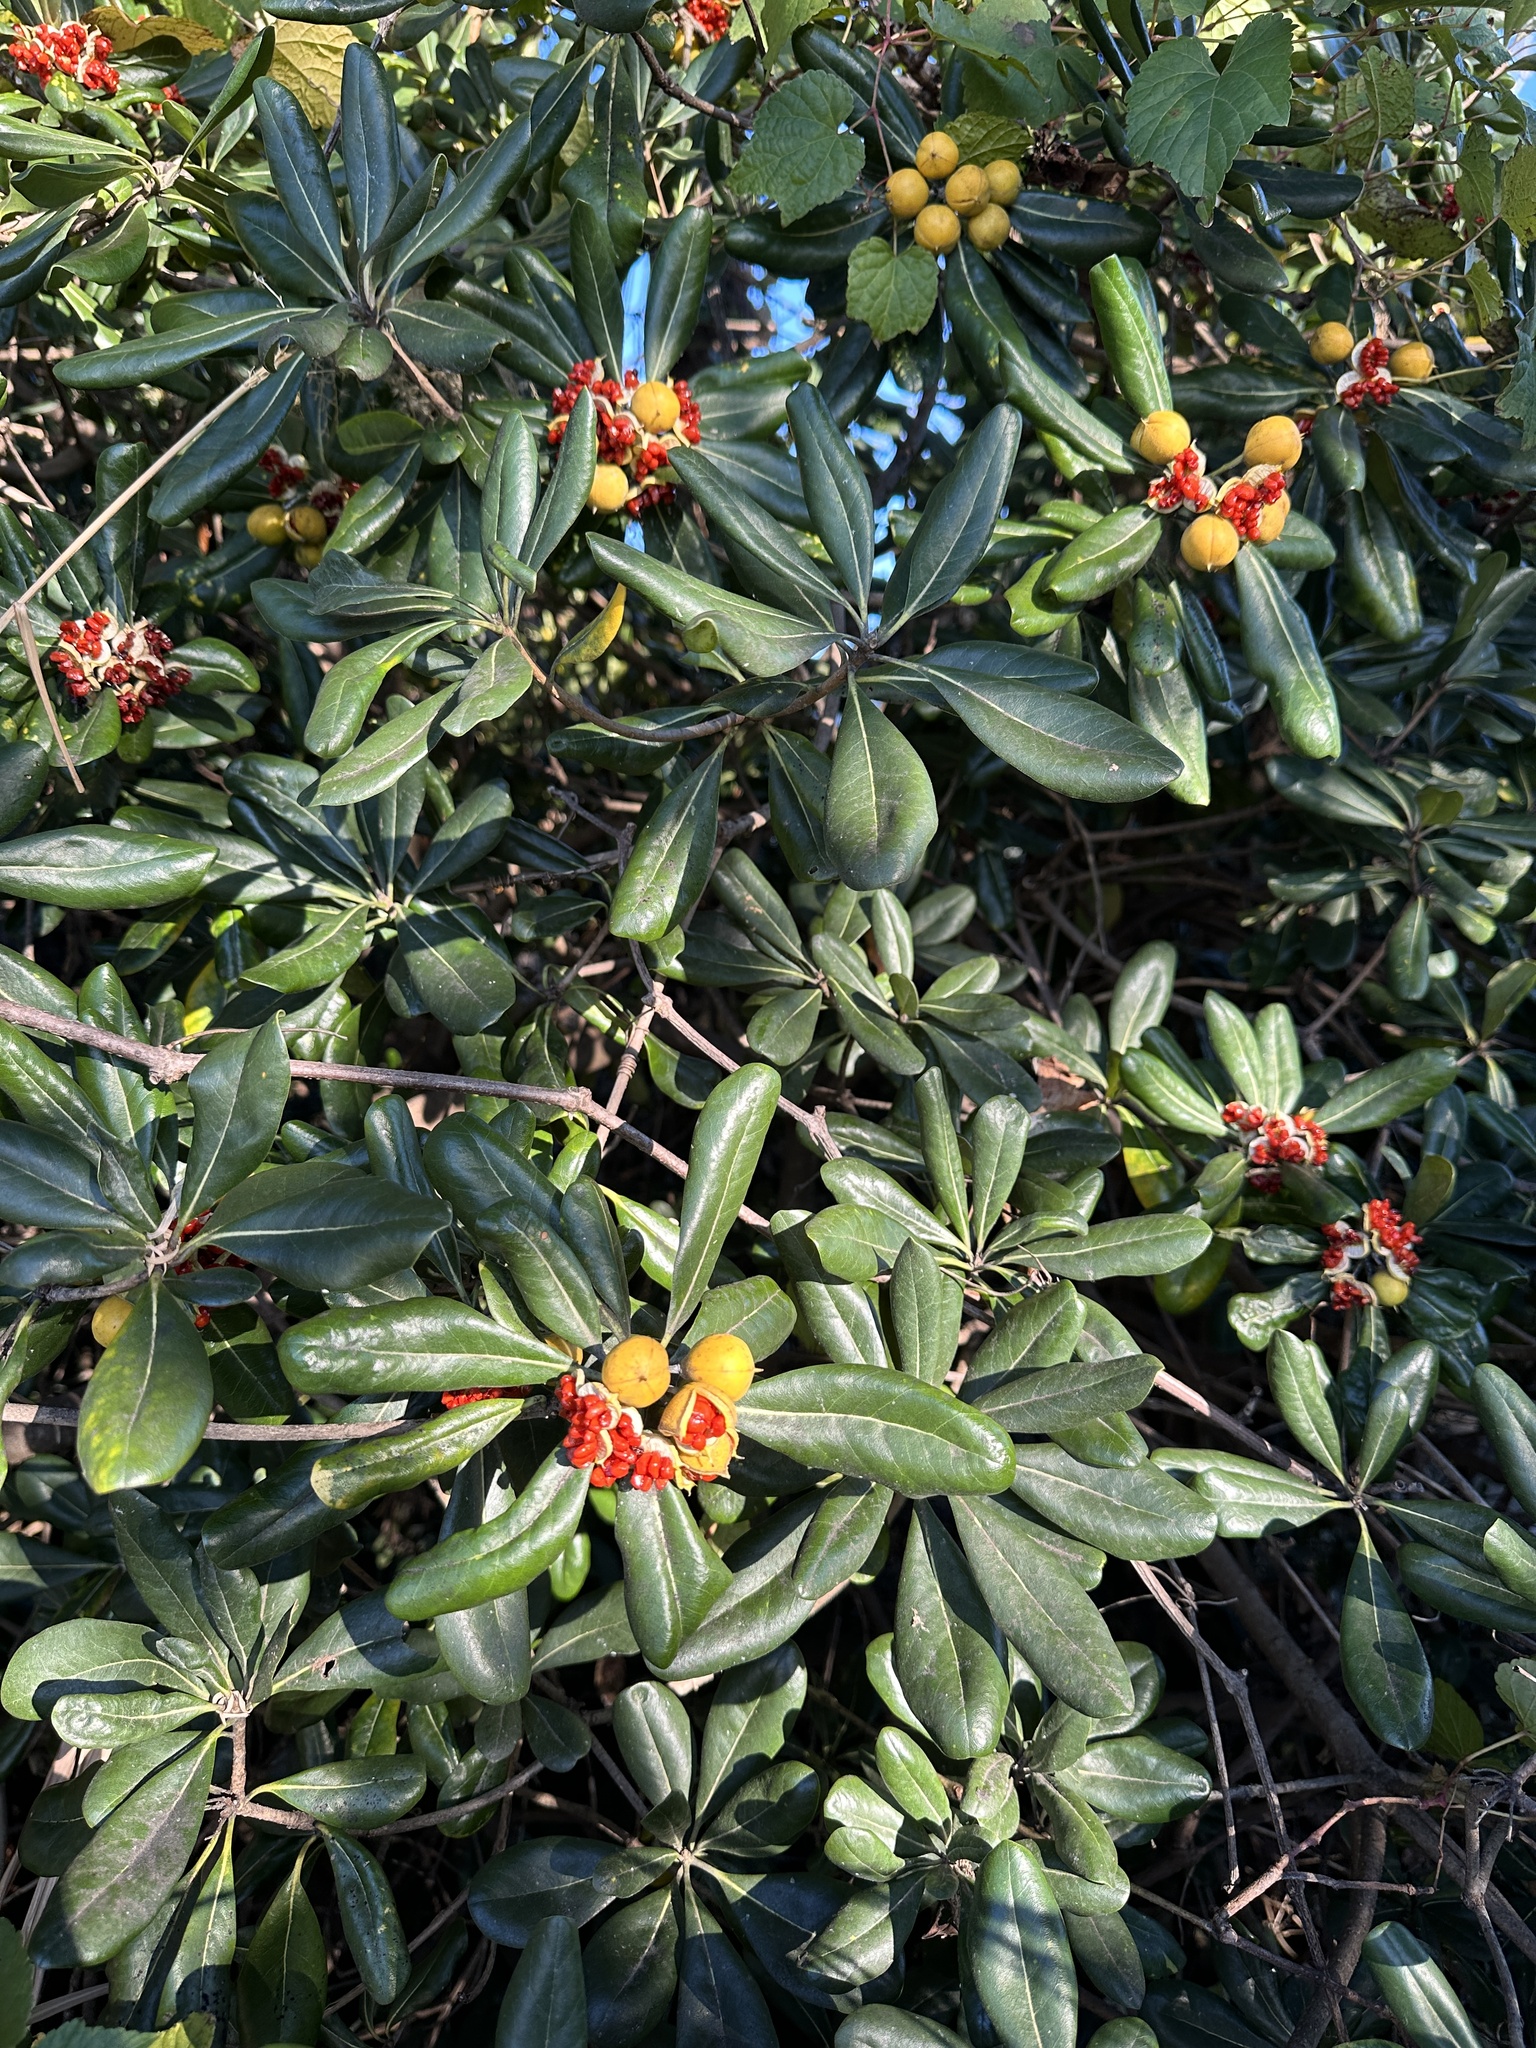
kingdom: Plantae
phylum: Tracheophyta
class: Magnoliopsida
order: Apiales
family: Pittosporaceae
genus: Pittosporum
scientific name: Pittosporum tobira
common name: Japanese cheesewood
